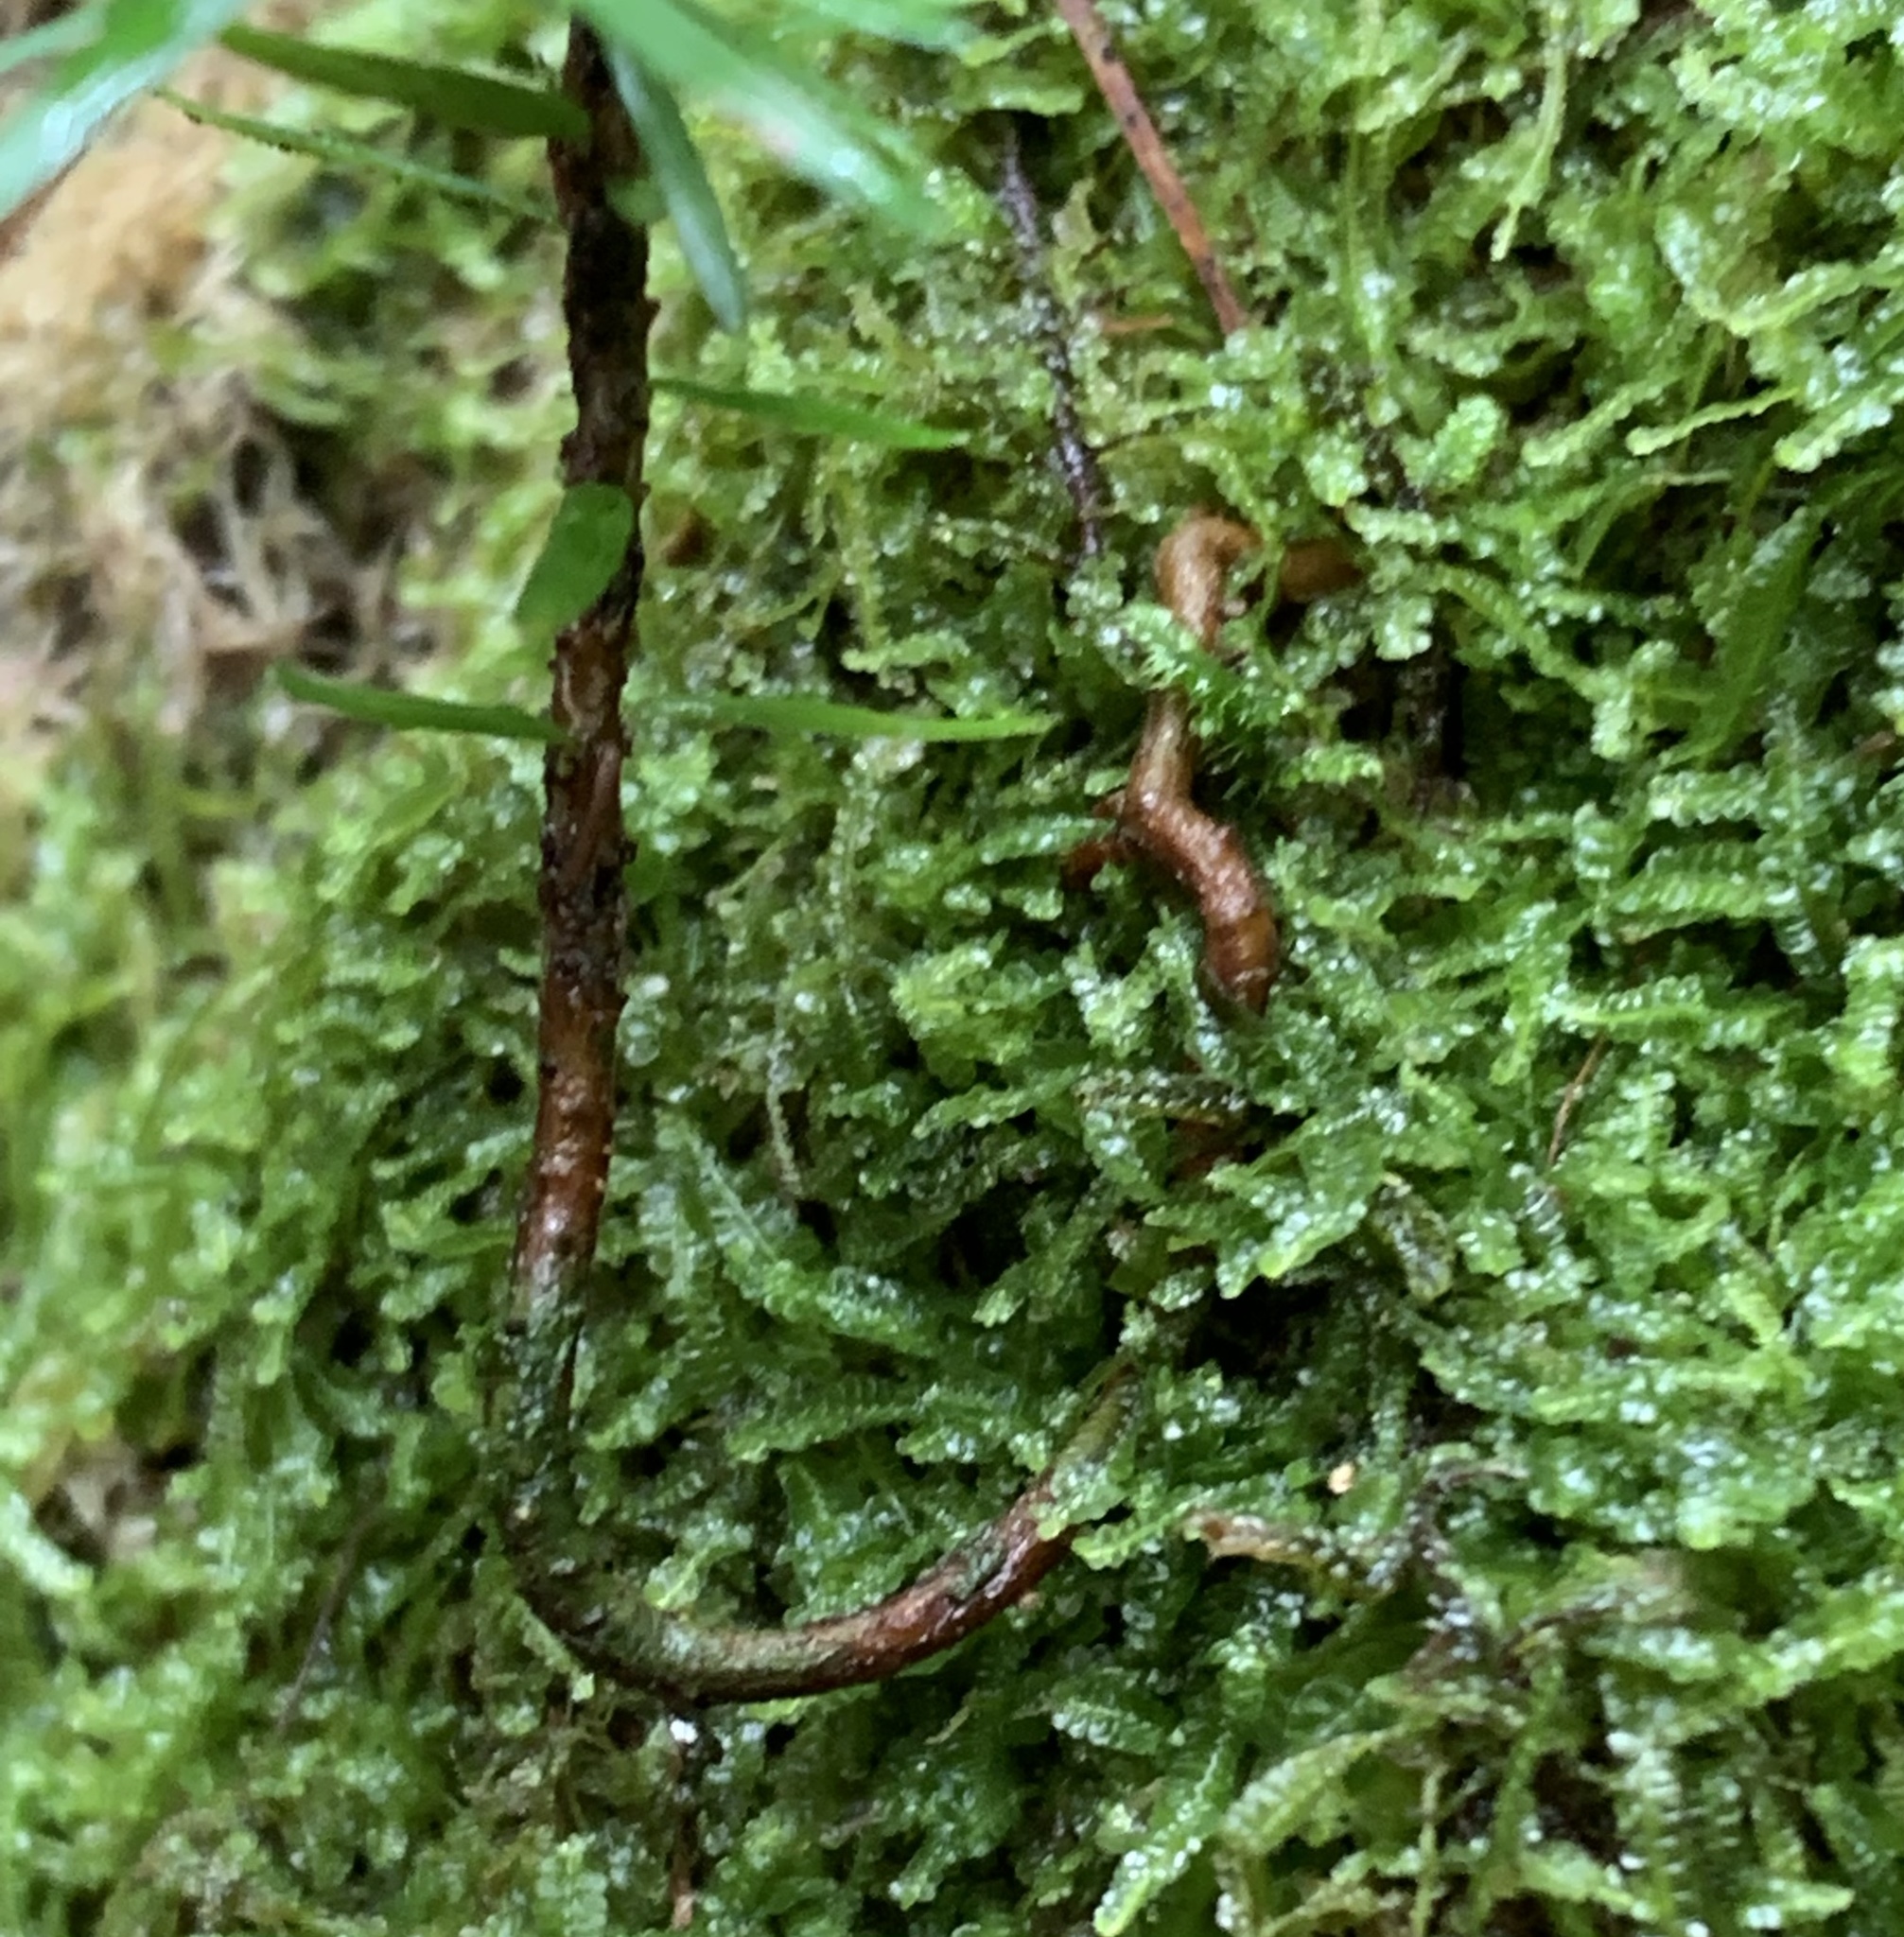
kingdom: Plantae
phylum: Tracheophyta
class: Pinopsida
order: Pinales
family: Pinaceae
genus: Tsuga
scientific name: Tsuga canadensis
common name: Eastern hemlock
